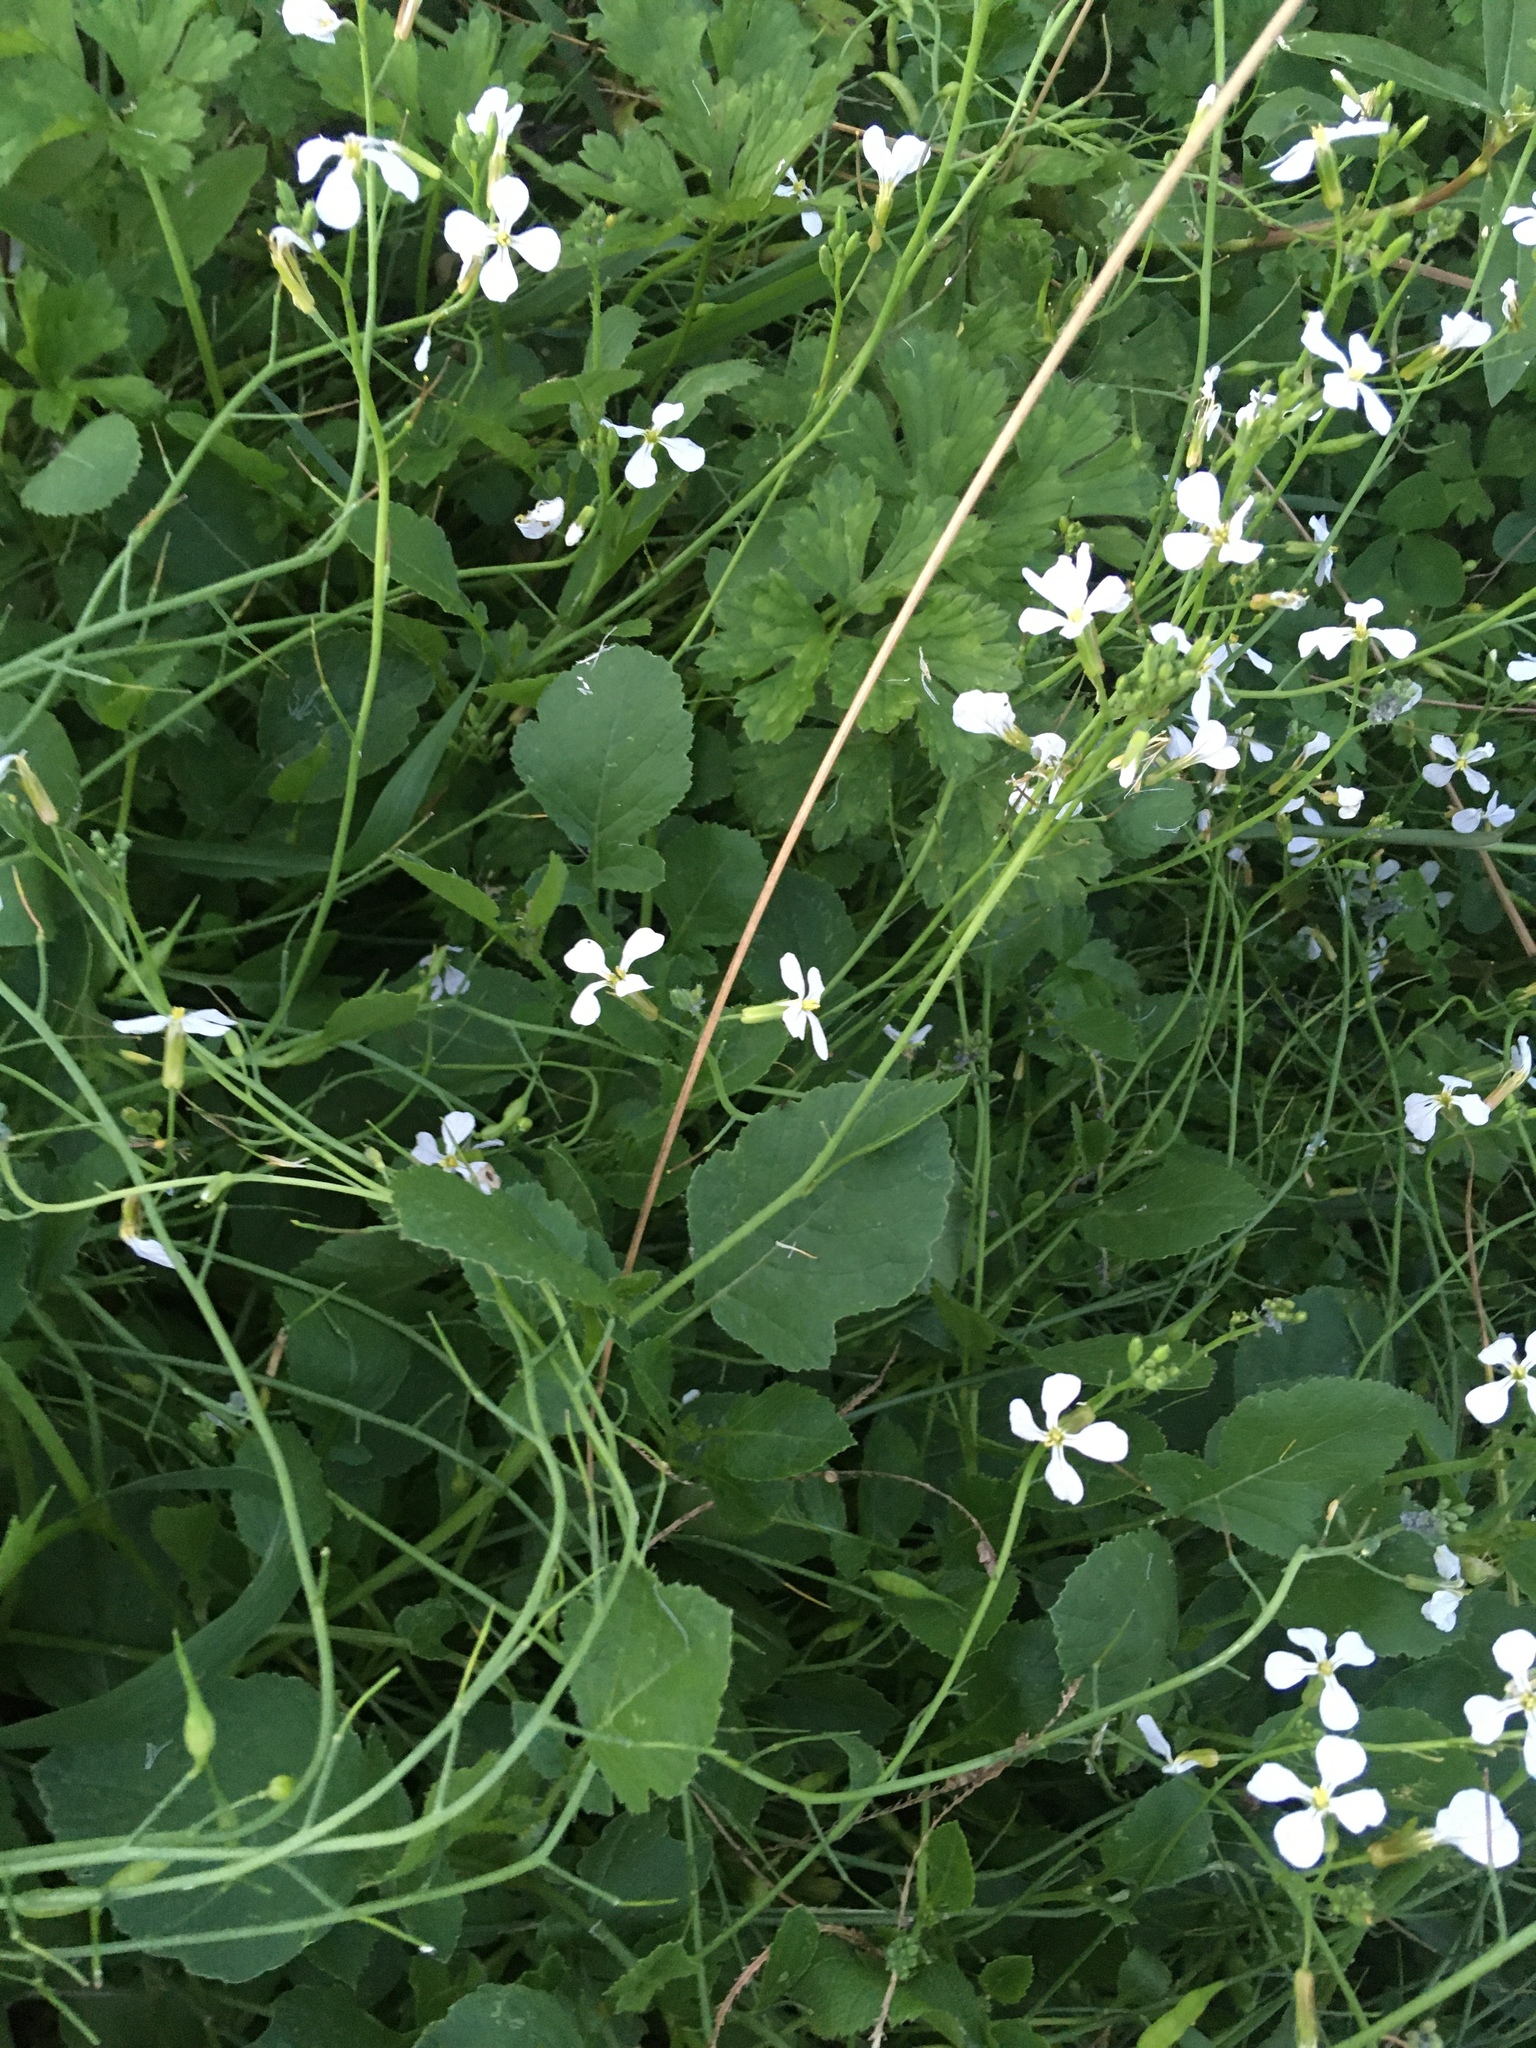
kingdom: Plantae
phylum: Tracheophyta
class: Magnoliopsida
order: Brassicales
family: Brassicaceae
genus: Raphanus
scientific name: Raphanus raphanistrum
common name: Wild radish
